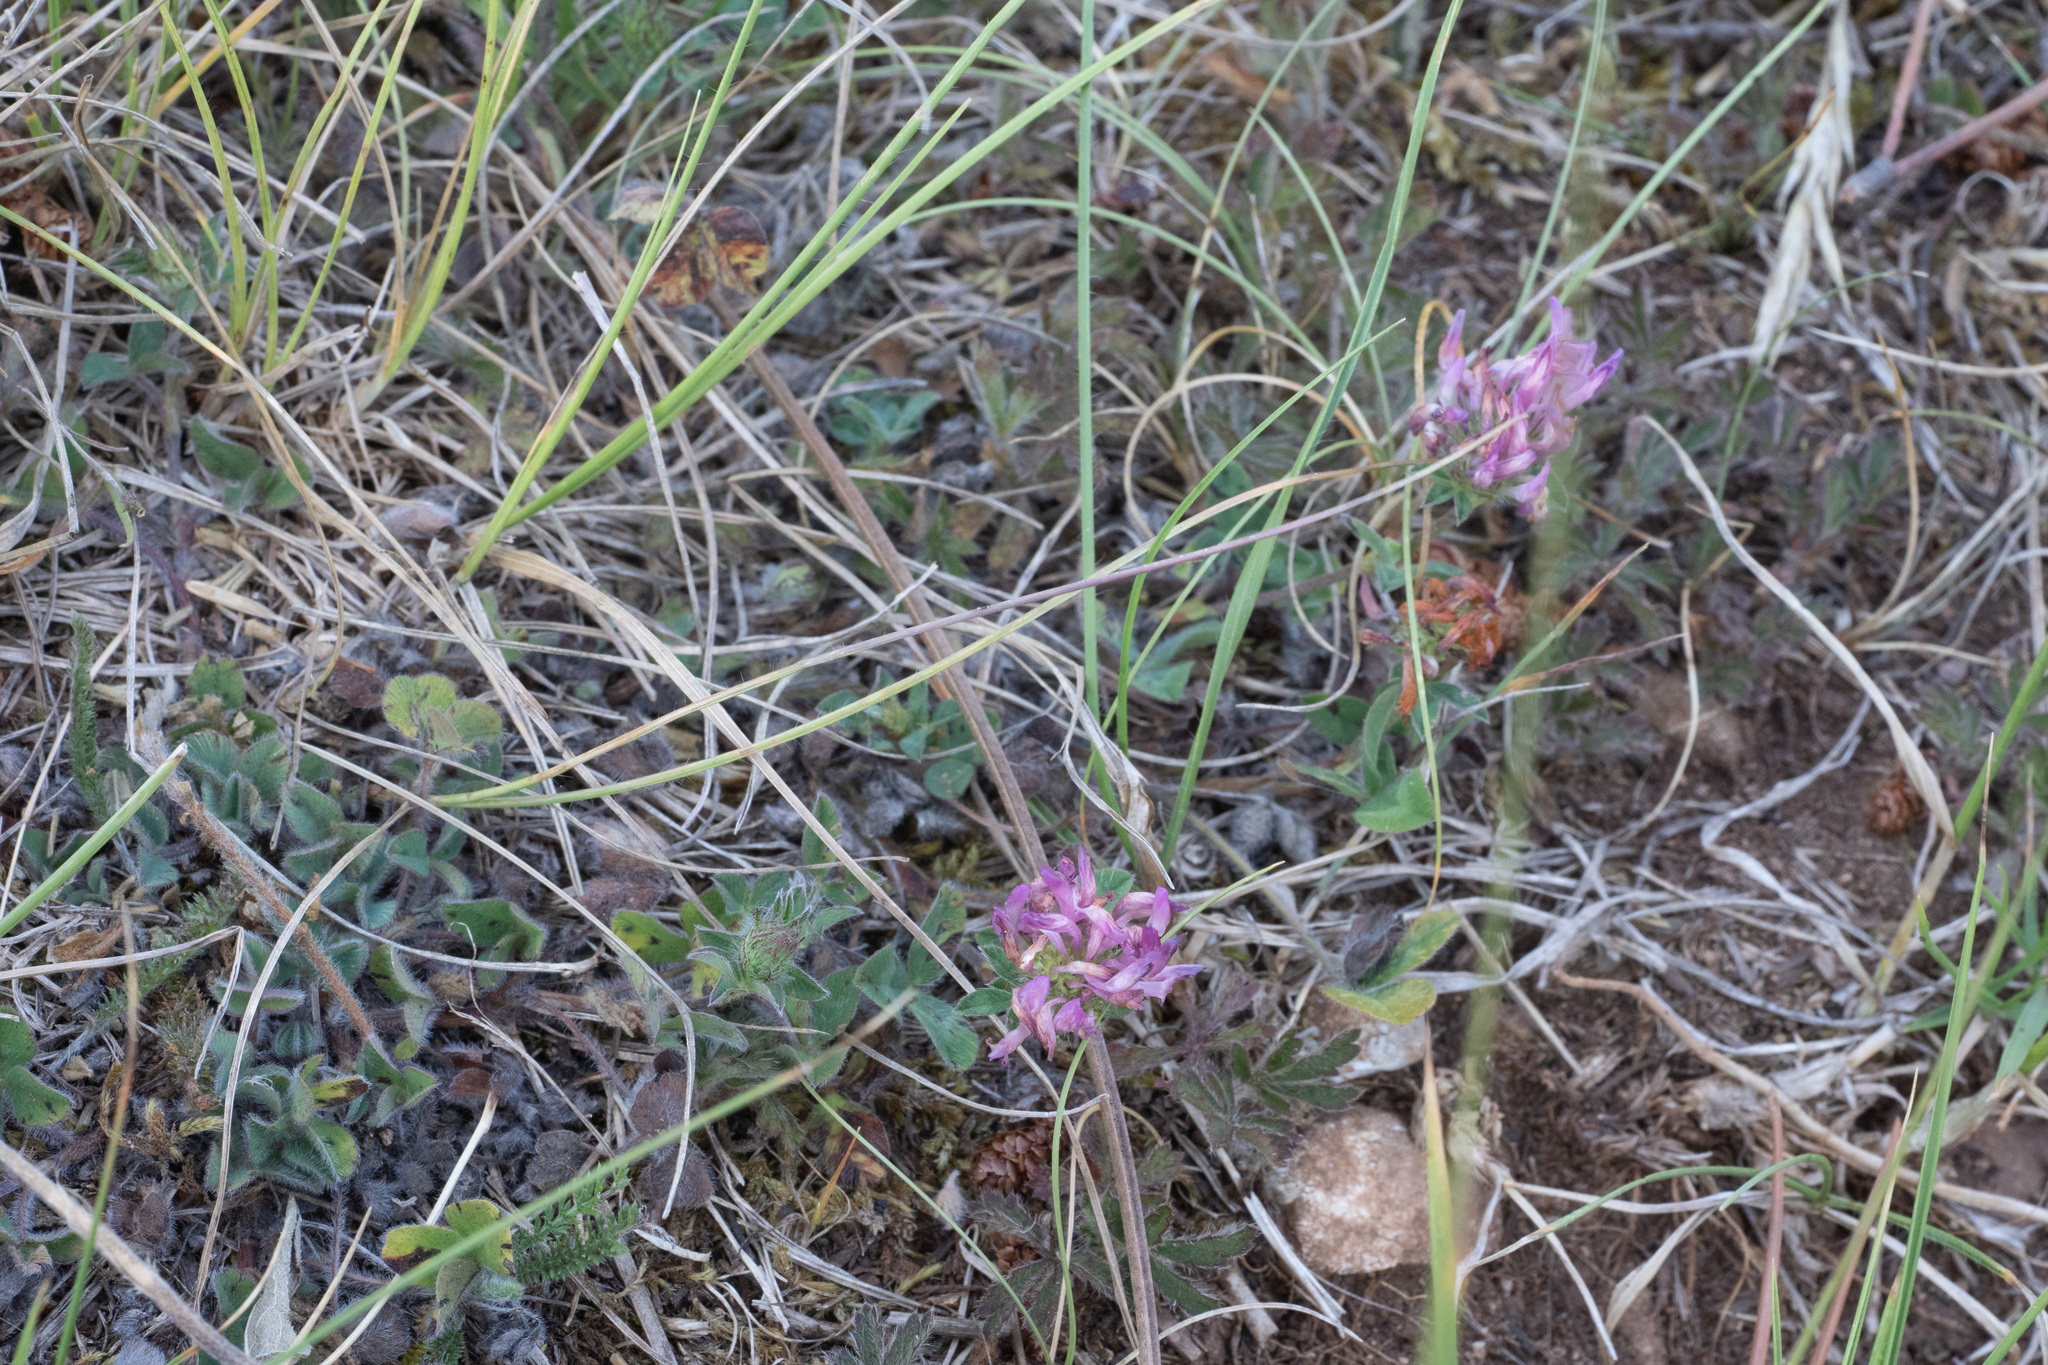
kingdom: Plantae
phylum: Tracheophyta
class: Magnoliopsida
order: Fabales
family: Fabaceae
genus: Trifolium
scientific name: Trifolium pratense
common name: Red clover
